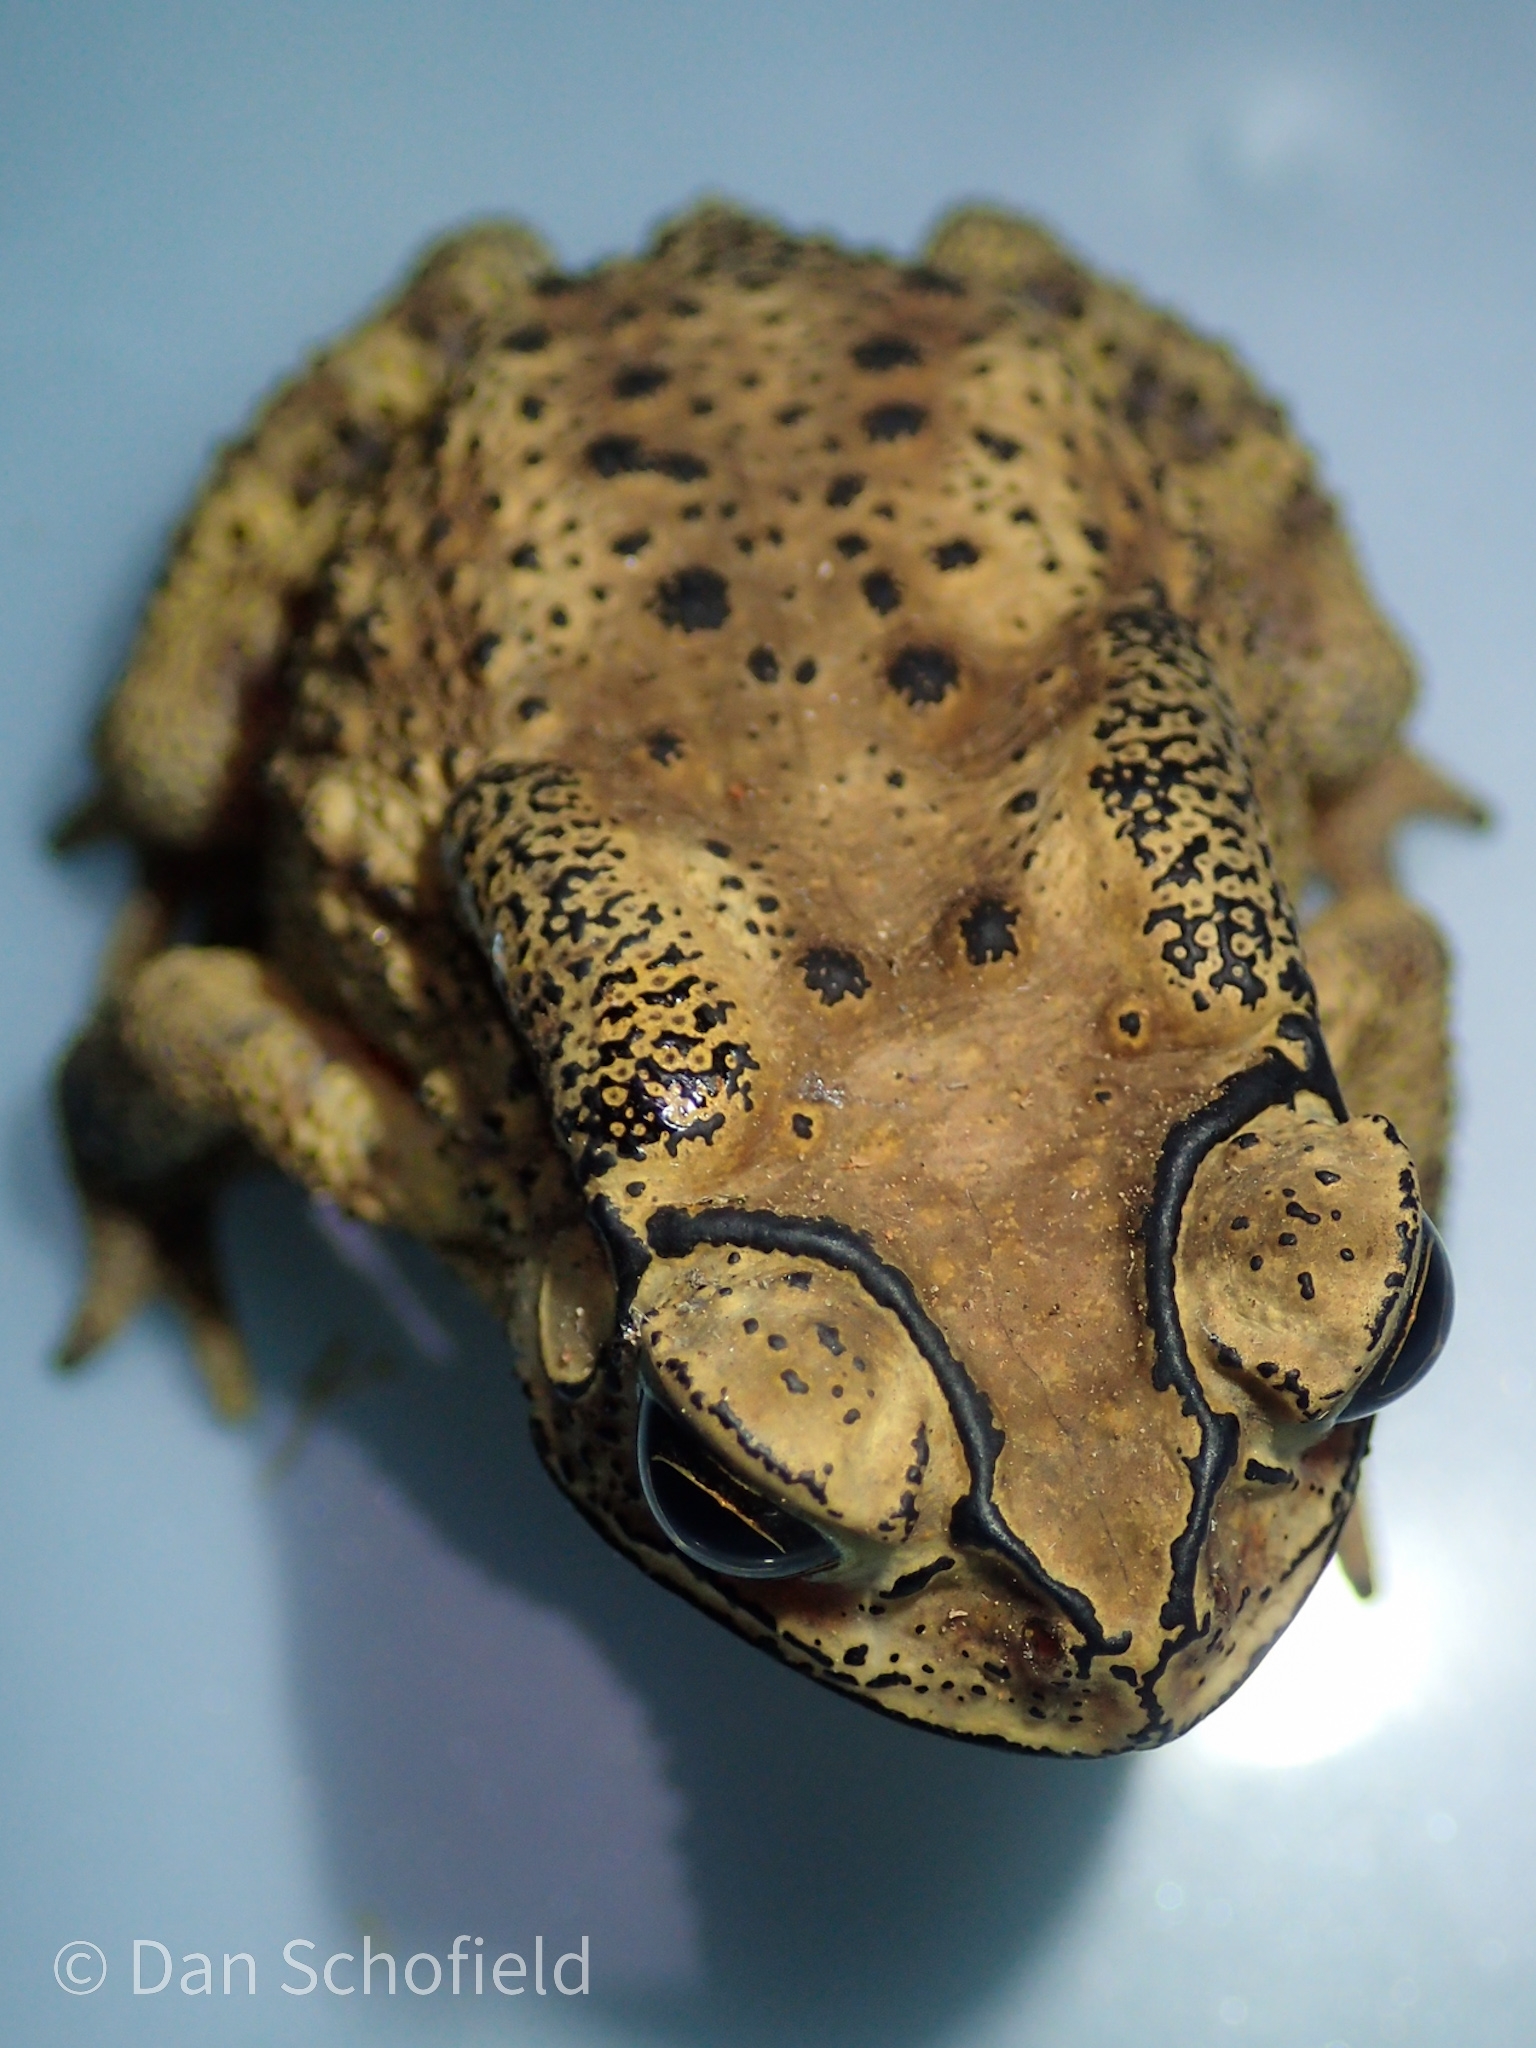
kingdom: Animalia
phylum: Chordata
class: Amphibia
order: Anura
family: Bufonidae
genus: Duttaphrynus
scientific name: Duttaphrynus melanostictus
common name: Common sunda toad
